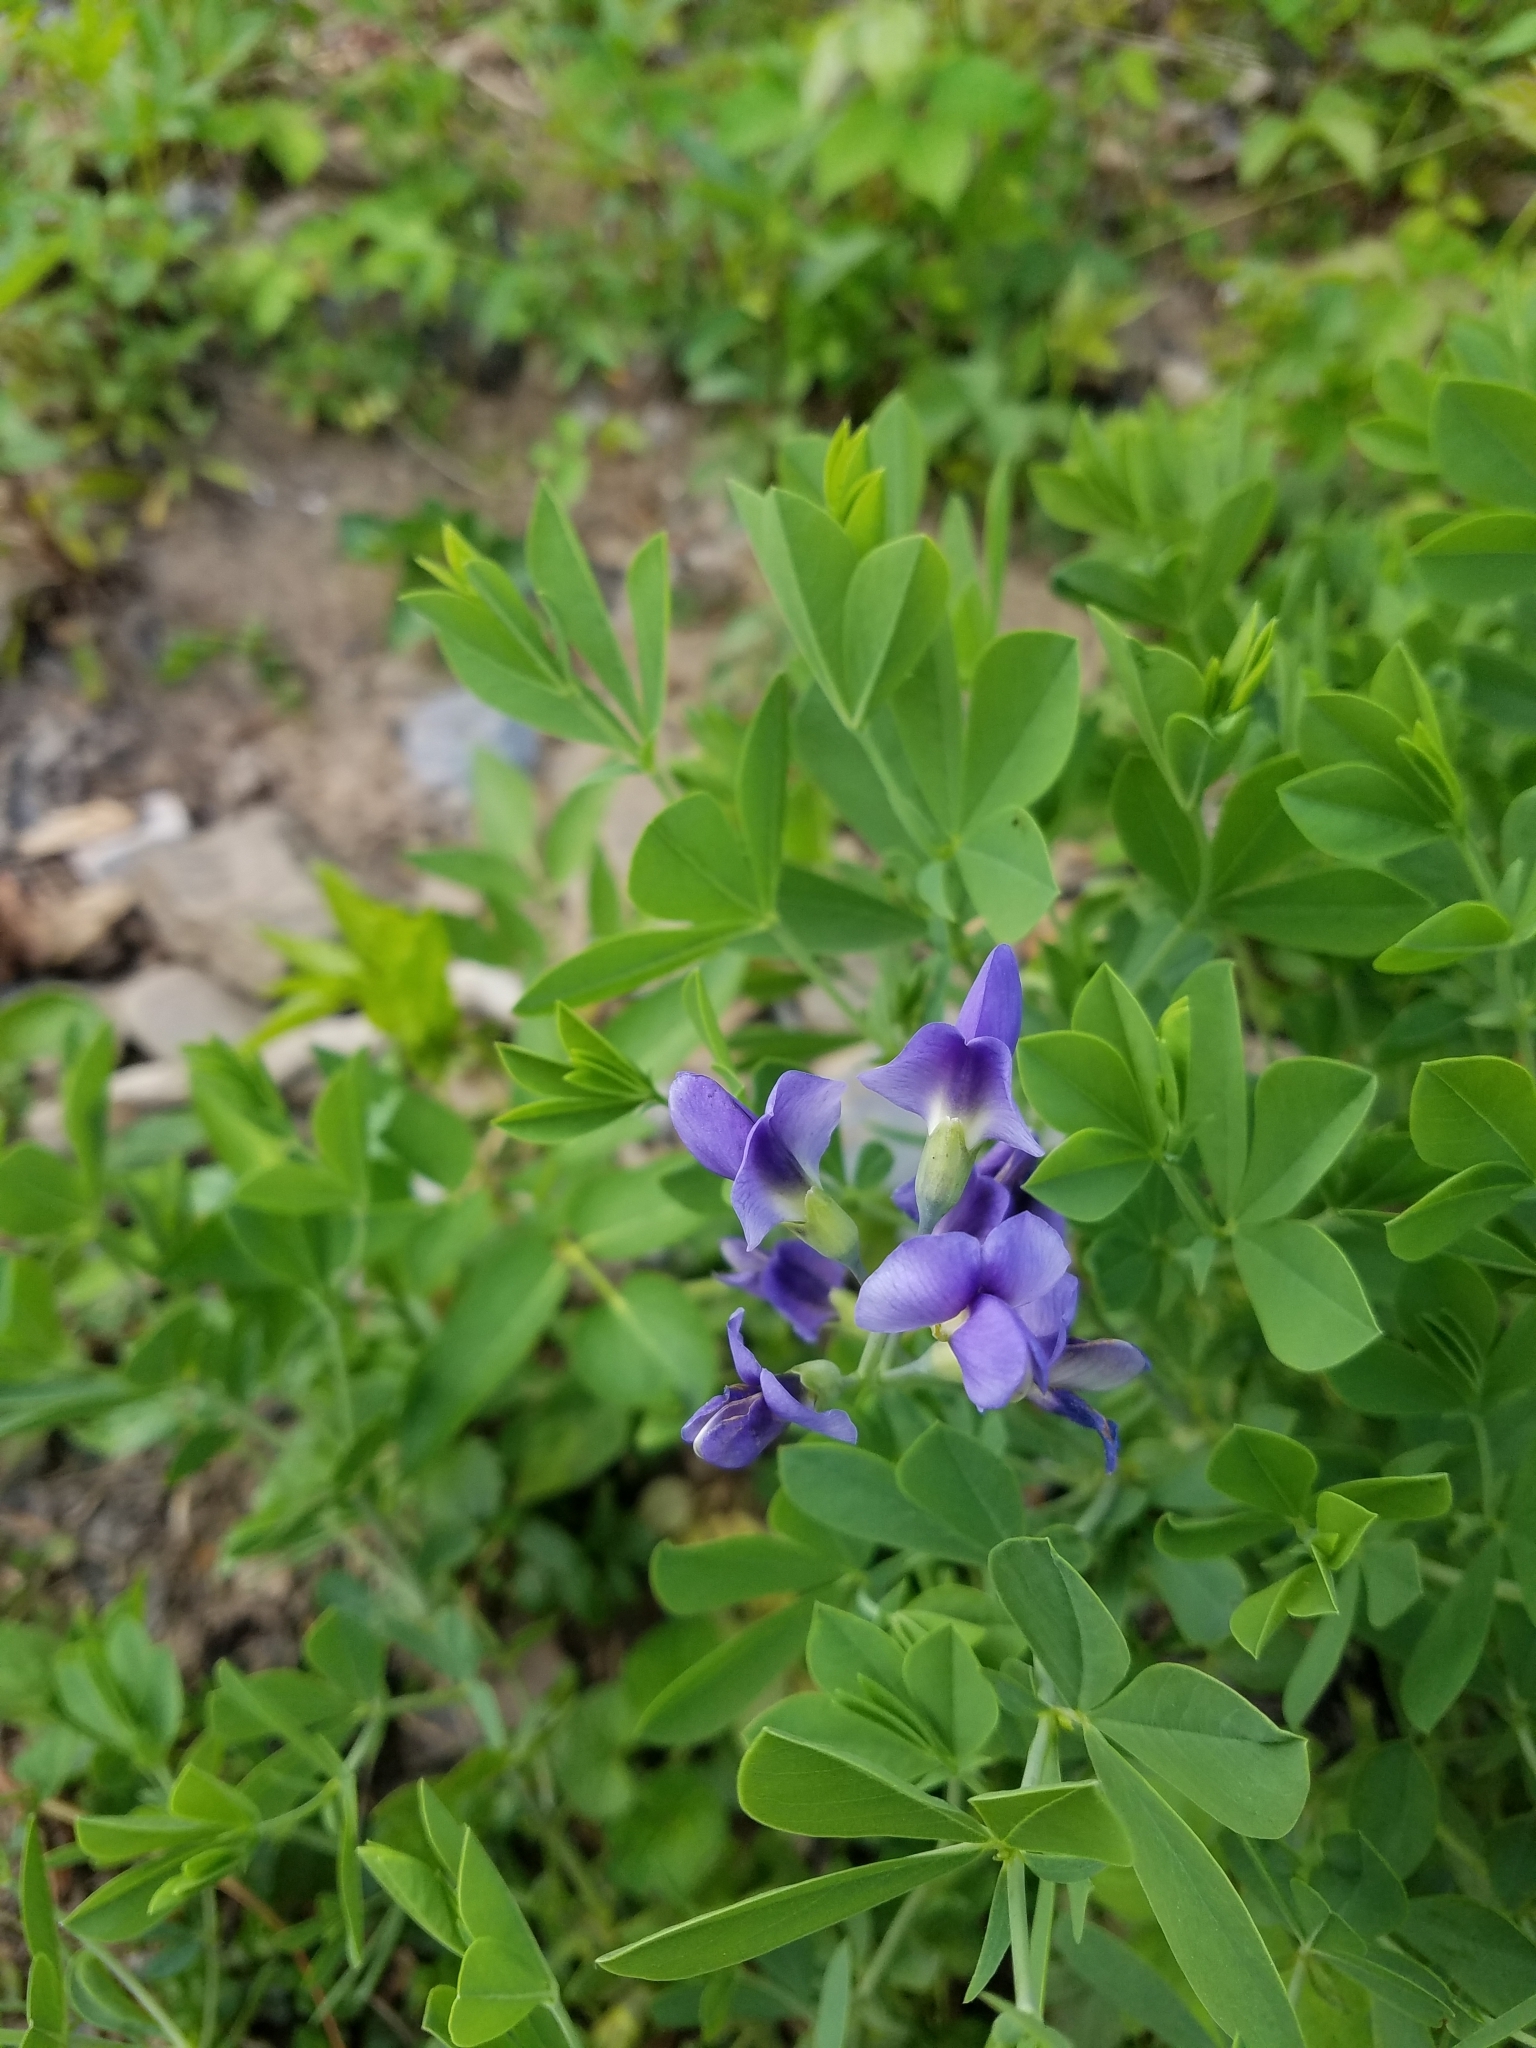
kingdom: Plantae
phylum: Tracheophyta
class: Magnoliopsida
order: Fabales
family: Fabaceae
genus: Baptisia
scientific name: Baptisia australis
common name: Blue false indigo
